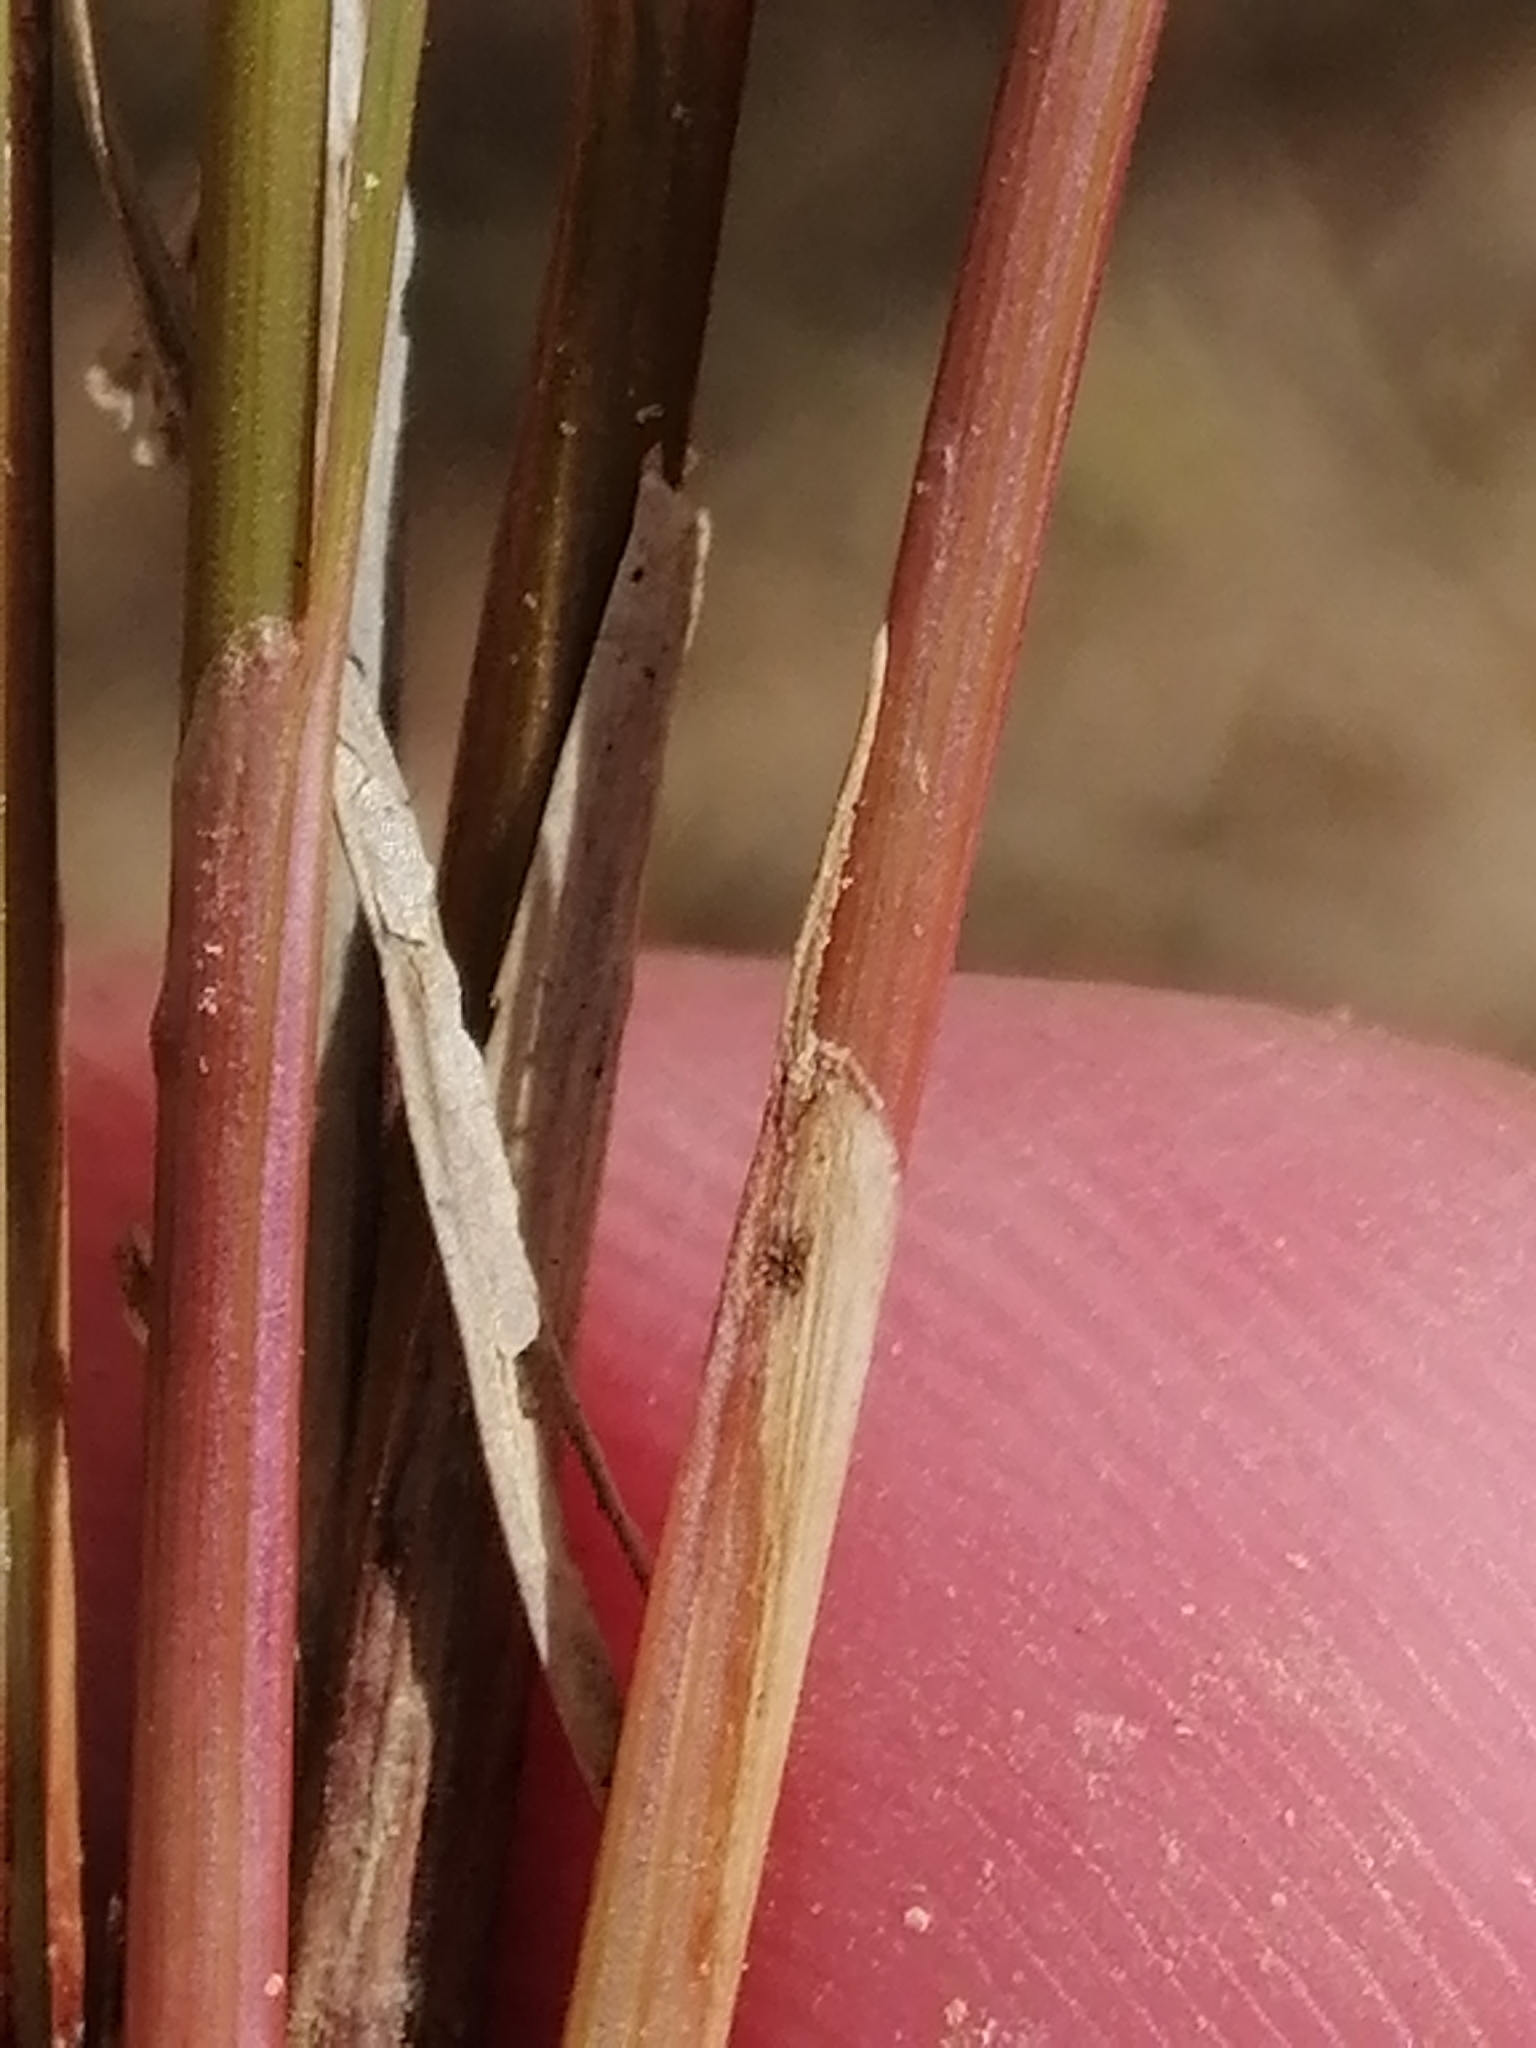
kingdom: Plantae
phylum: Tracheophyta
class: Liliopsida
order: Poales
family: Cyperaceae
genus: Schoenus
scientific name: Schoenus pauciflorus
